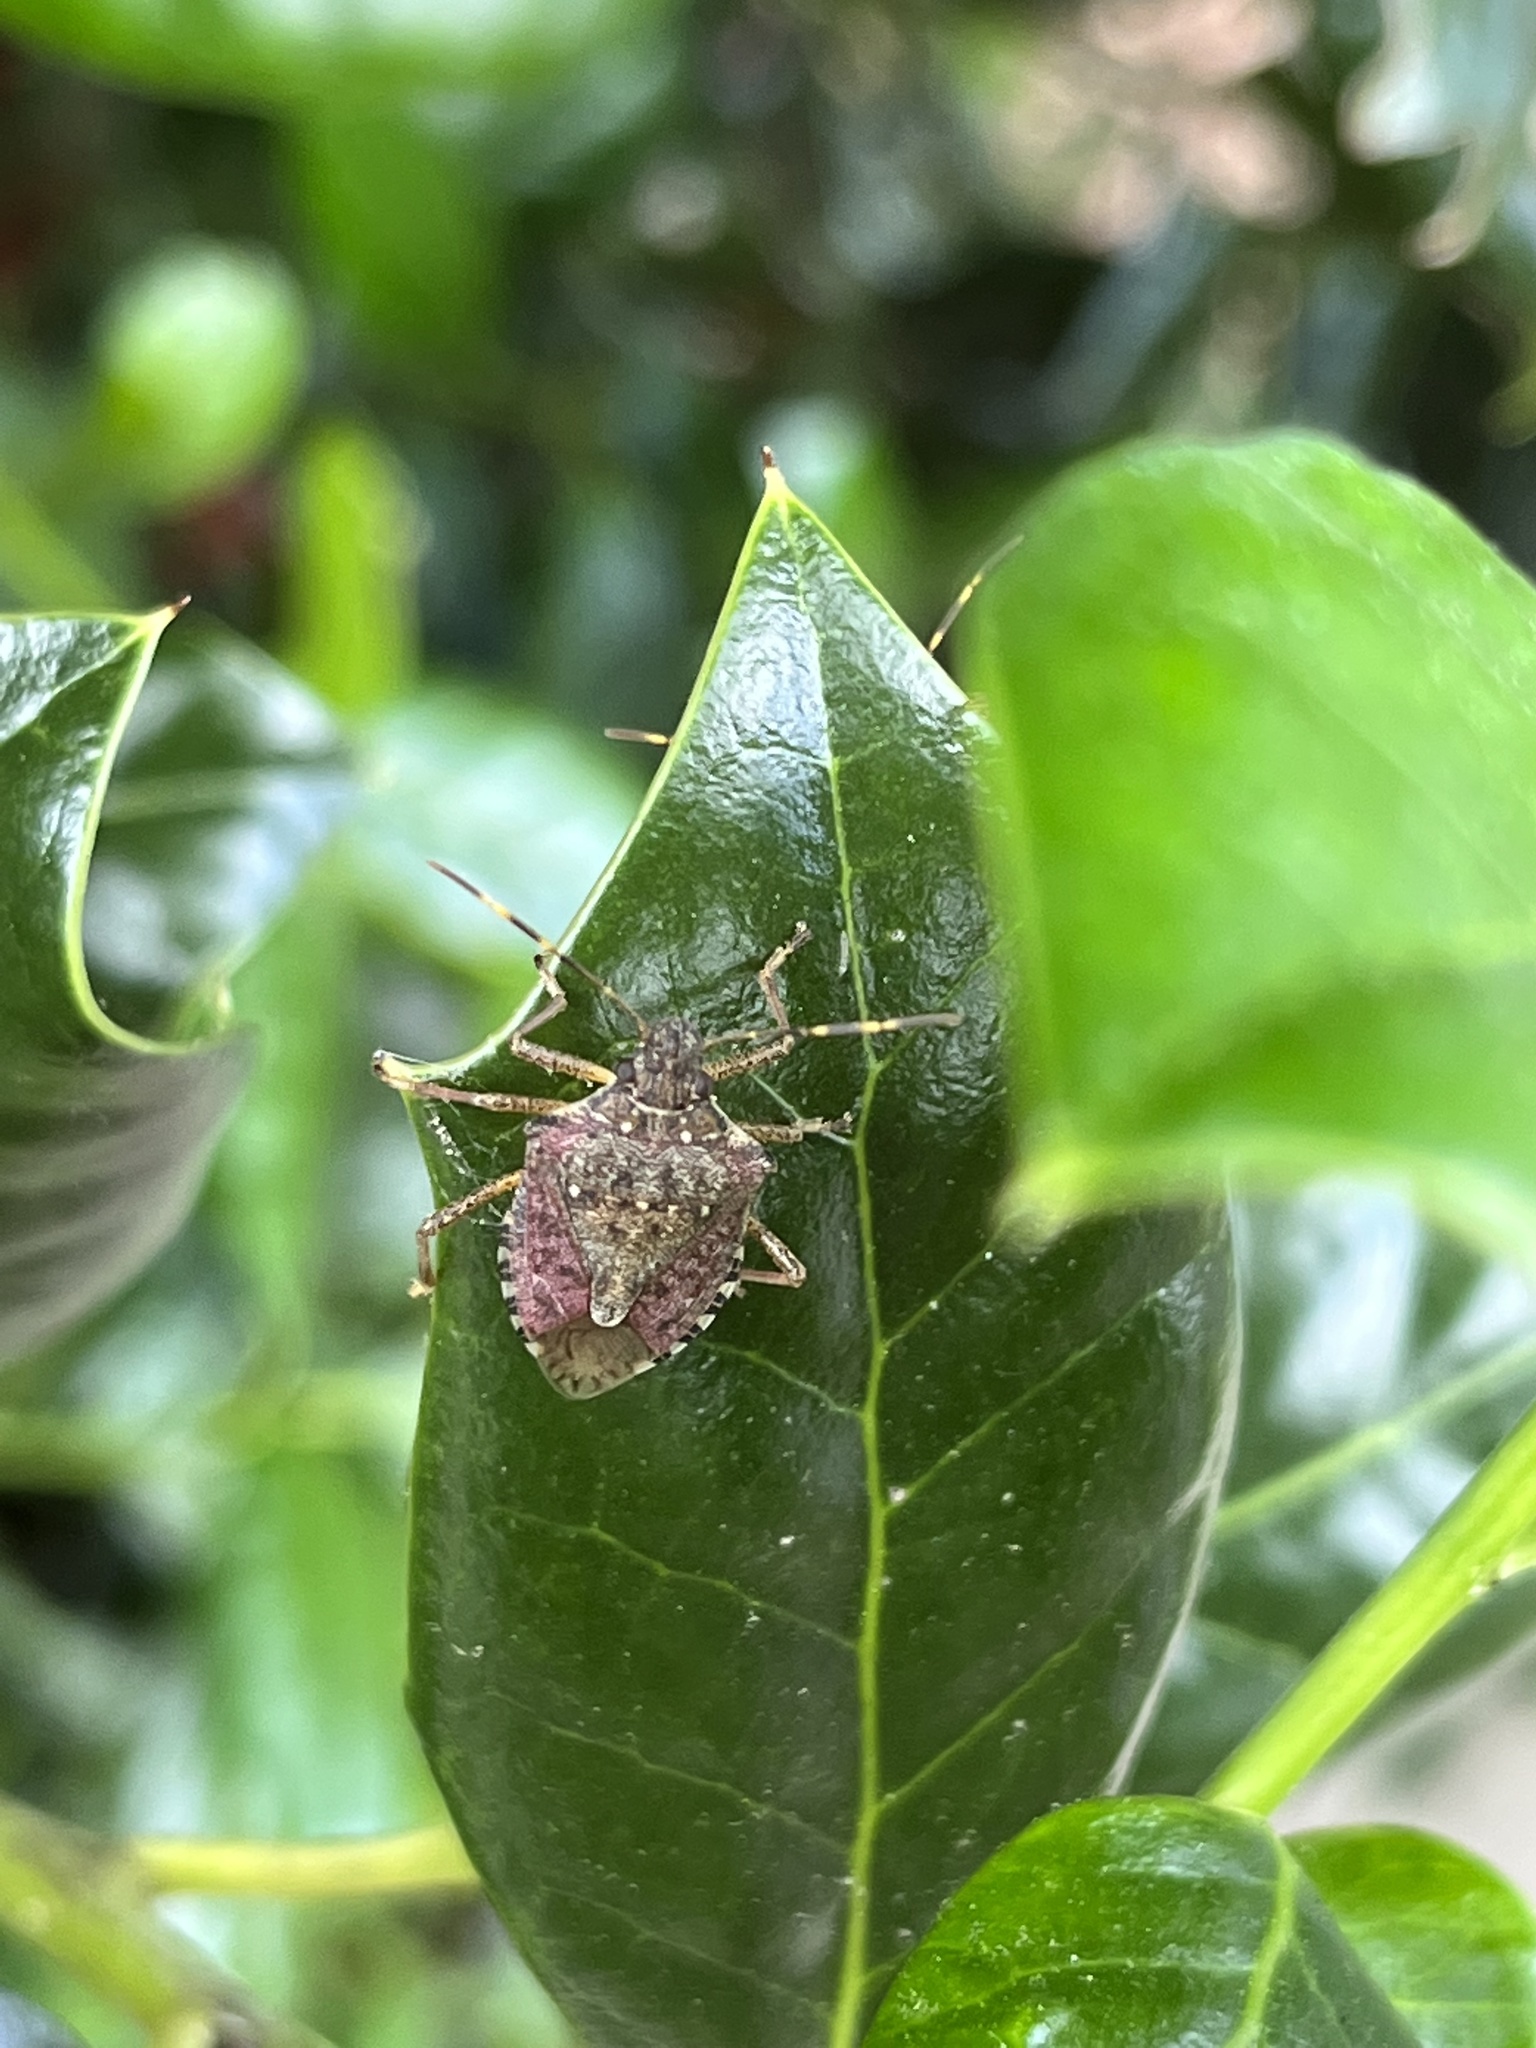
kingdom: Animalia
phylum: Arthropoda
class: Insecta
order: Hemiptera
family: Pentatomidae
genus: Halyomorpha
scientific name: Halyomorpha halys
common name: Brown marmorated stink bug
